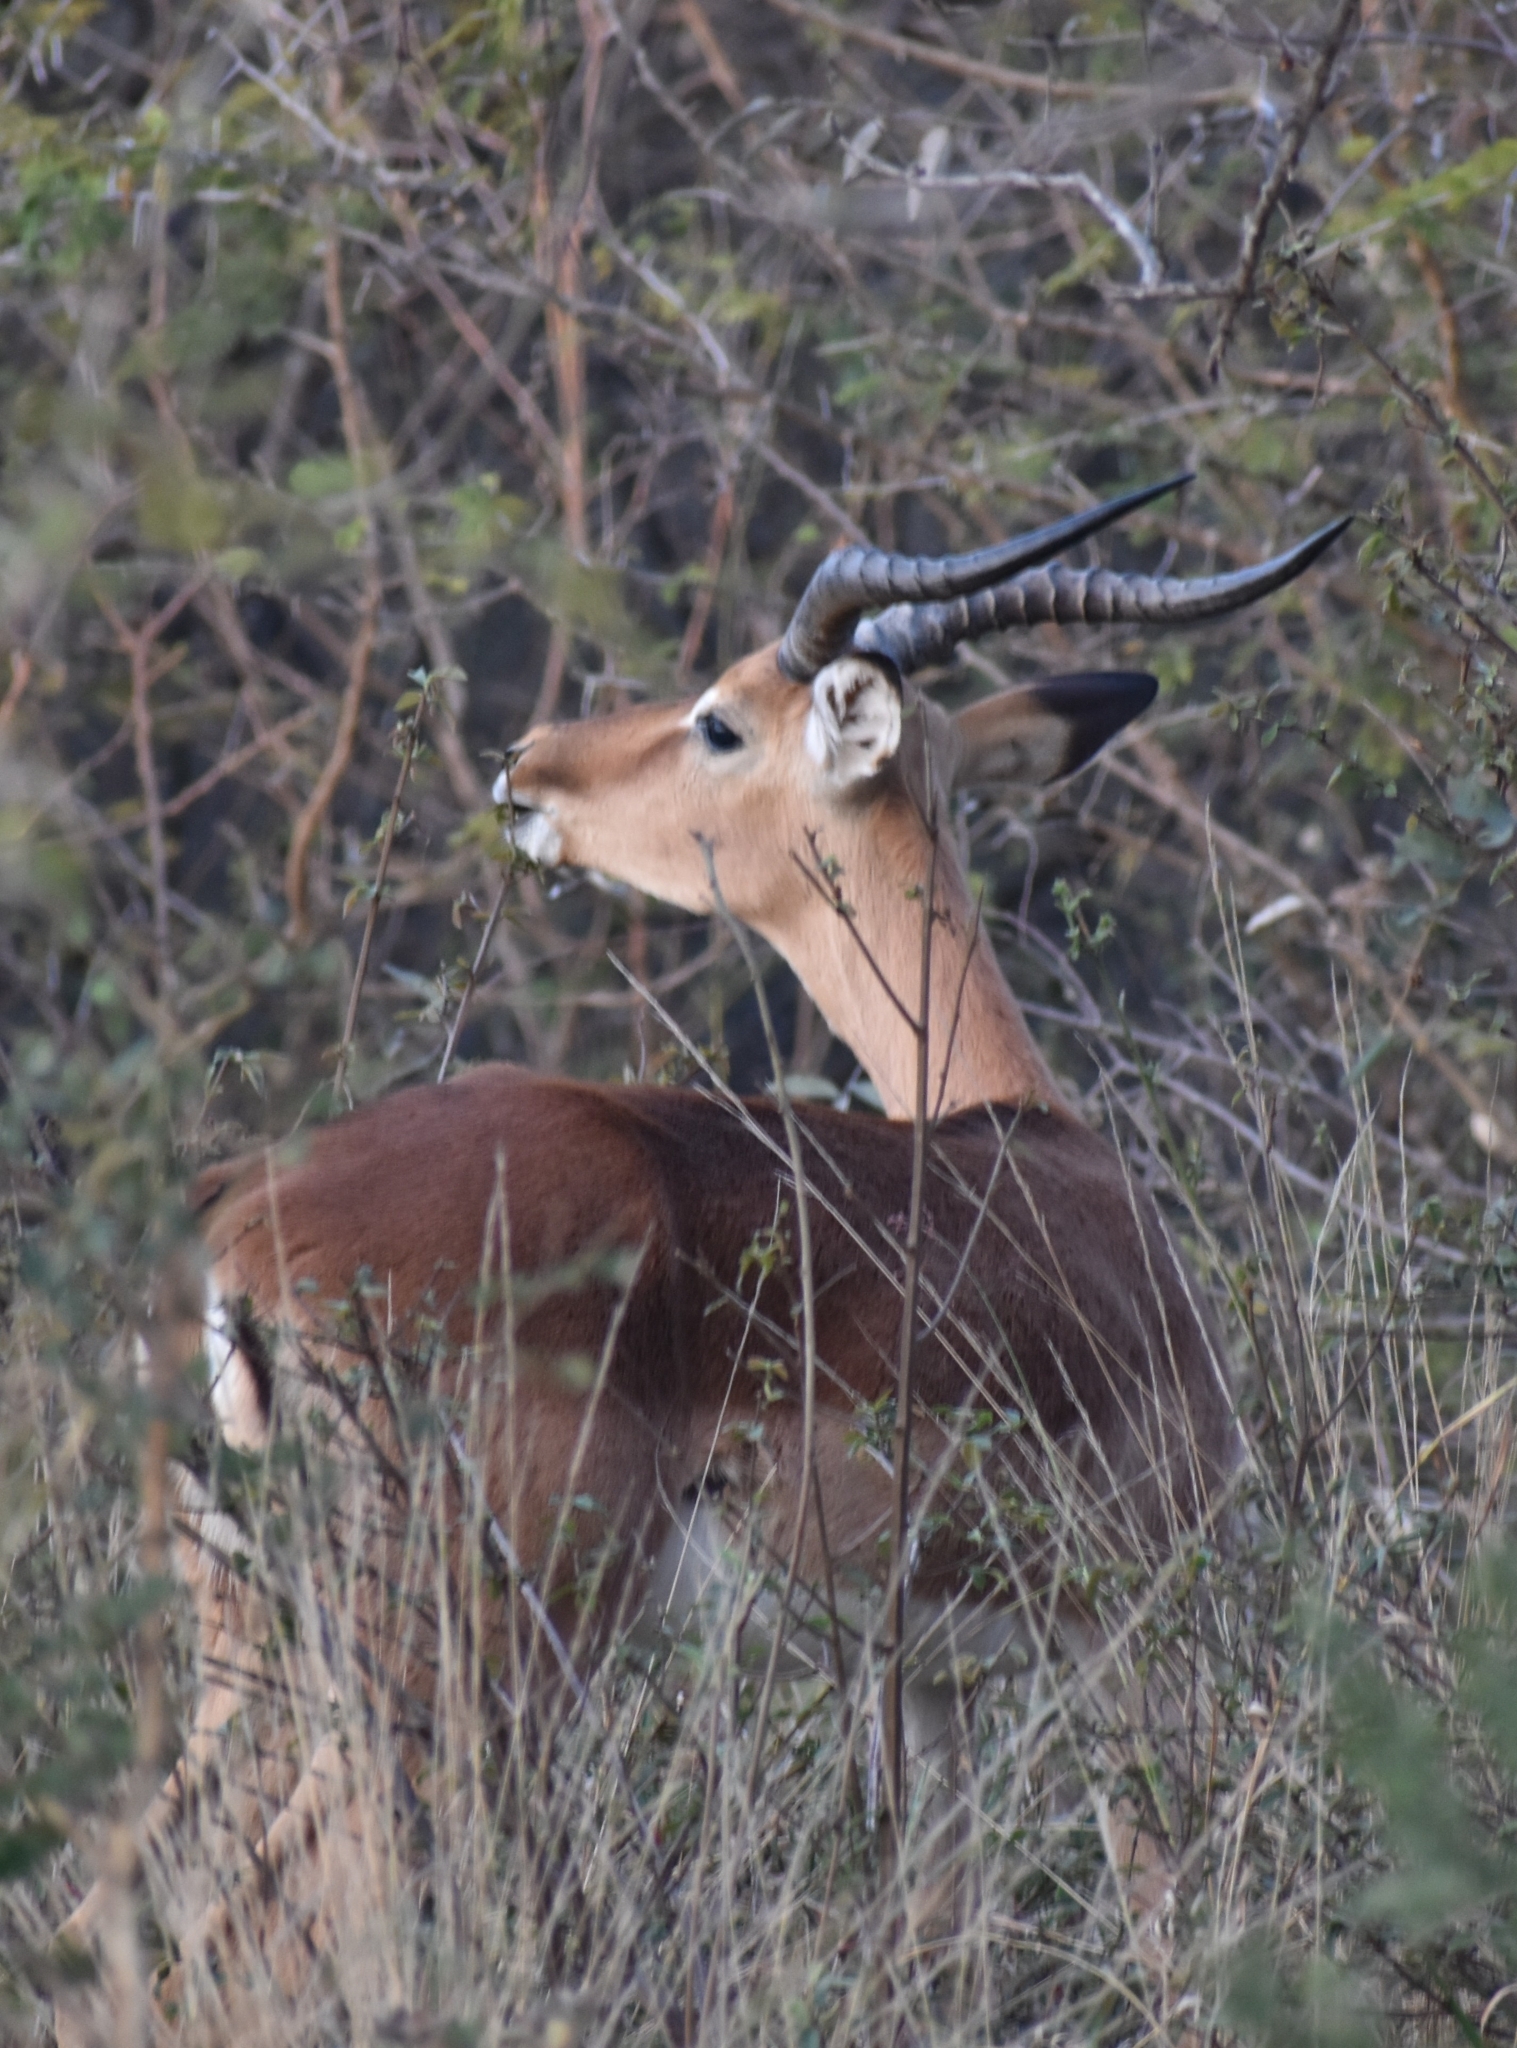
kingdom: Animalia
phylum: Chordata
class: Mammalia
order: Artiodactyla
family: Bovidae
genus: Aepyceros
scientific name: Aepyceros melampus
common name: Impala
